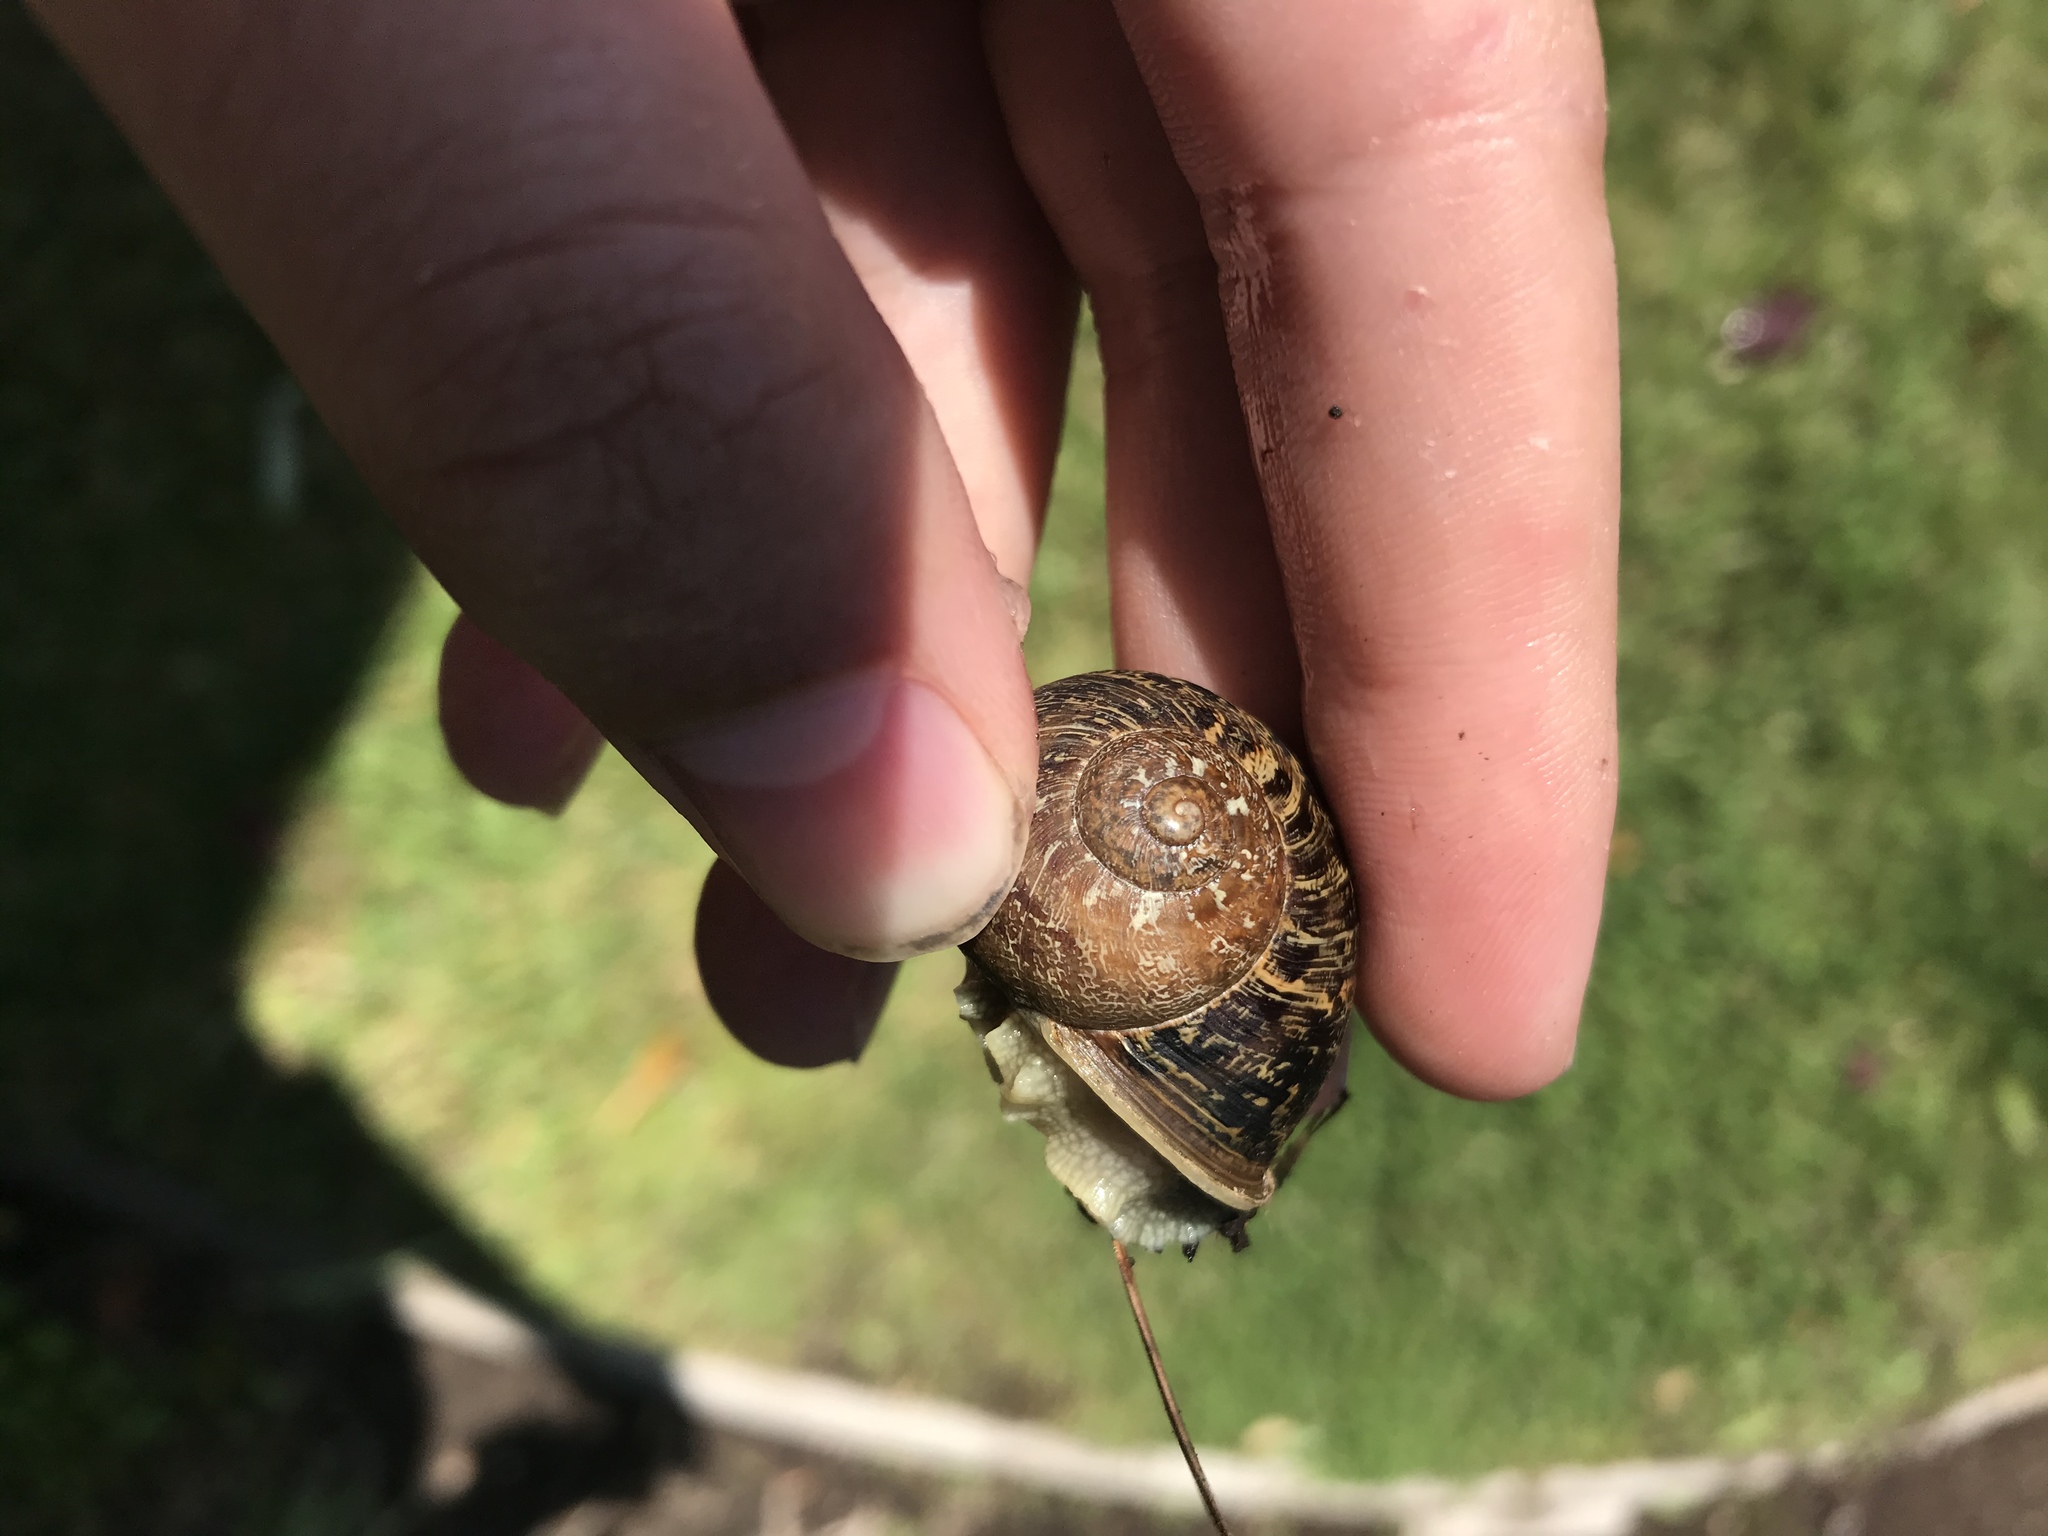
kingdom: Animalia
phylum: Mollusca
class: Gastropoda
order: Stylommatophora
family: Helicidae
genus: Cornu
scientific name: Cornu aspersum
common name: Brown garden snail
